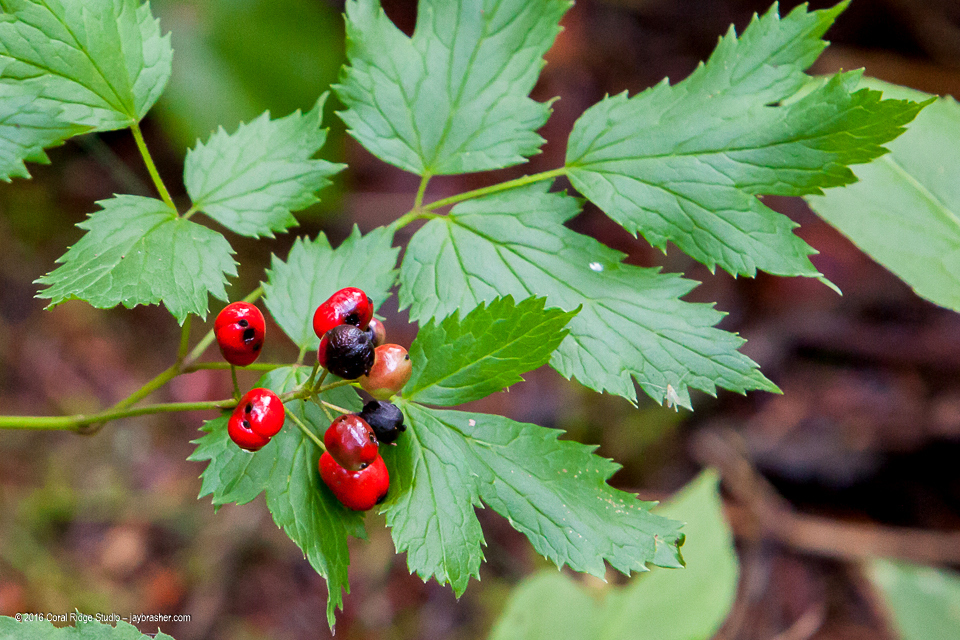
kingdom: Plantae
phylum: Tracheophyta
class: Magnoliopsida
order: Ranunculales
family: Ranunculaceae
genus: Actaea
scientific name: Actaea rubra
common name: Red baneberry
